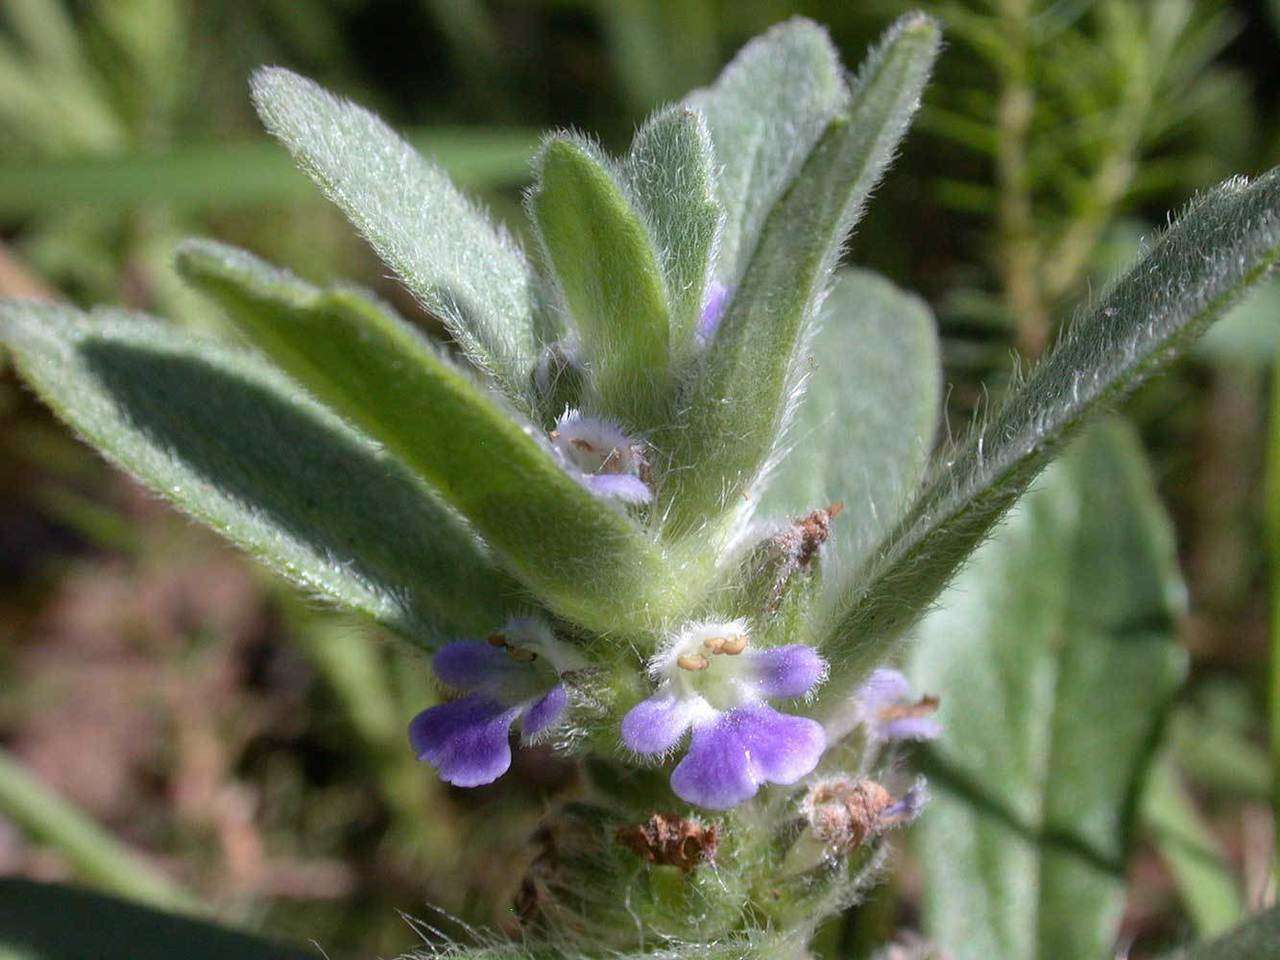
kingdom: Plantae
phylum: Tracheophyta
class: Magnoliopsida
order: Lamiales
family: Lamiaceae
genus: Ajuga
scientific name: Ajuga australis
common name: Australian bugle
